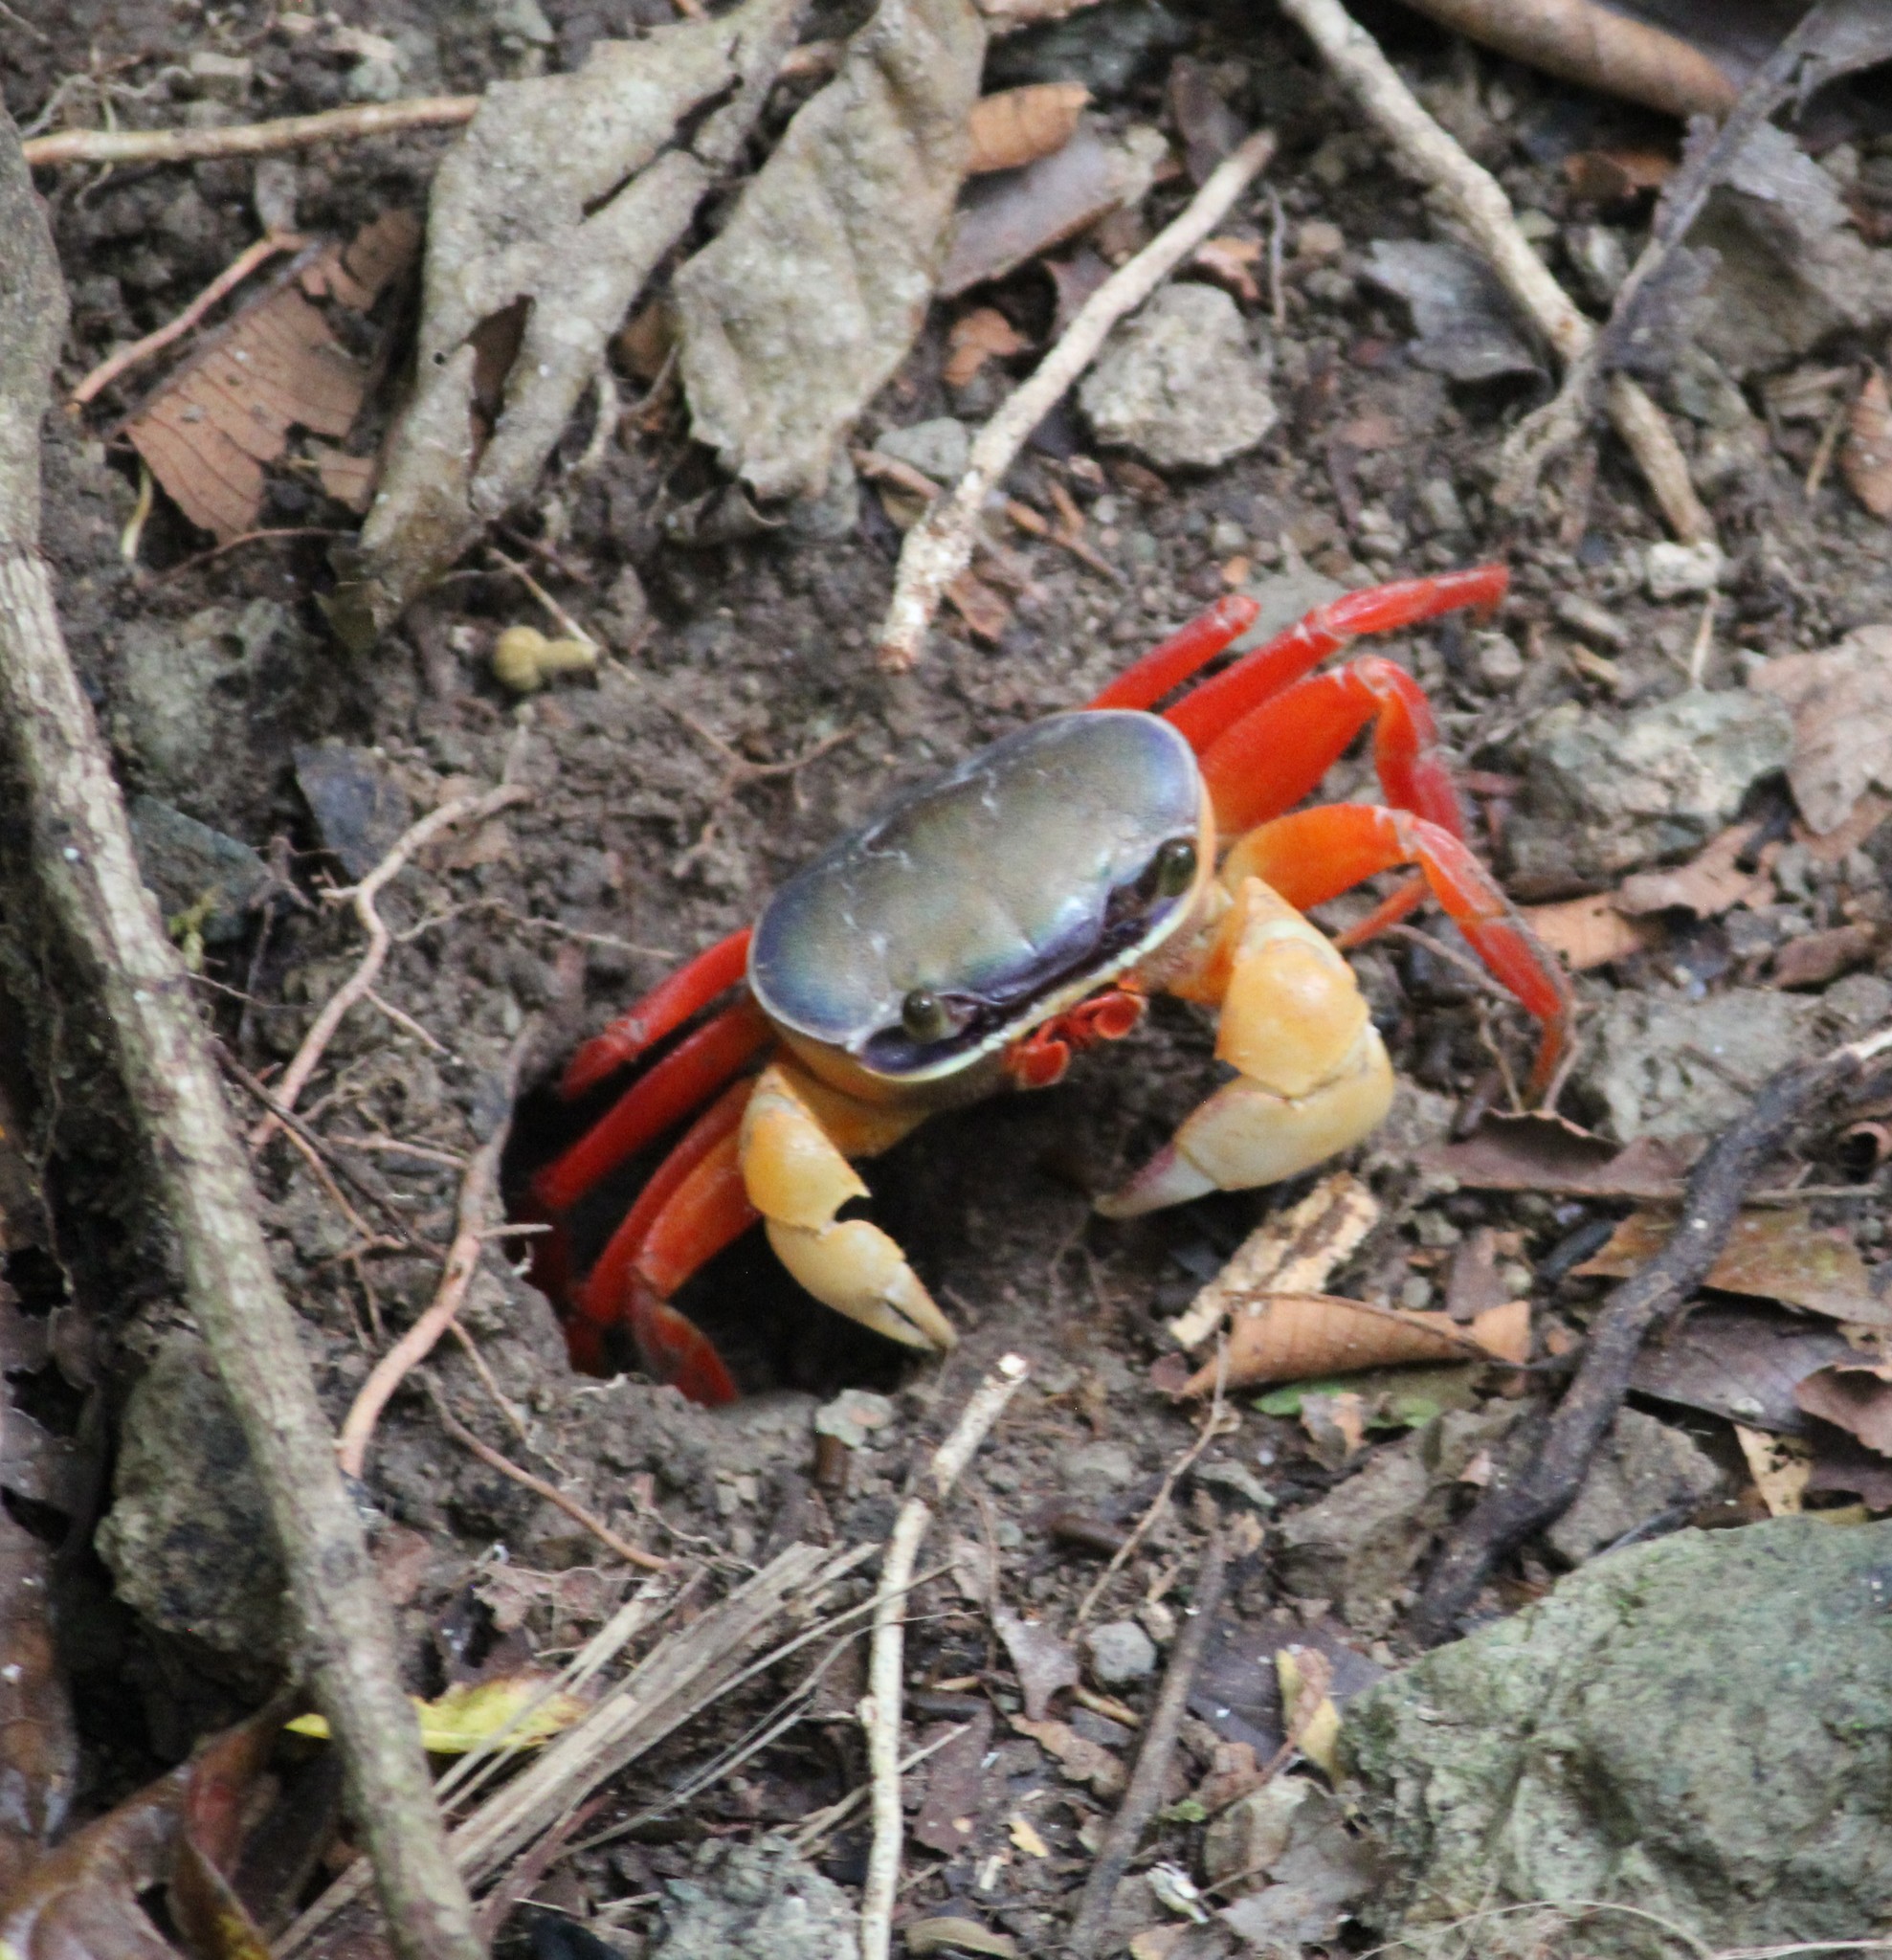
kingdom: Animalia
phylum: Arthropoda
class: Malacostraca
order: Decapoda
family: Gecarcinidae
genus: Cardisoma
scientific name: Cardisoma crassum
